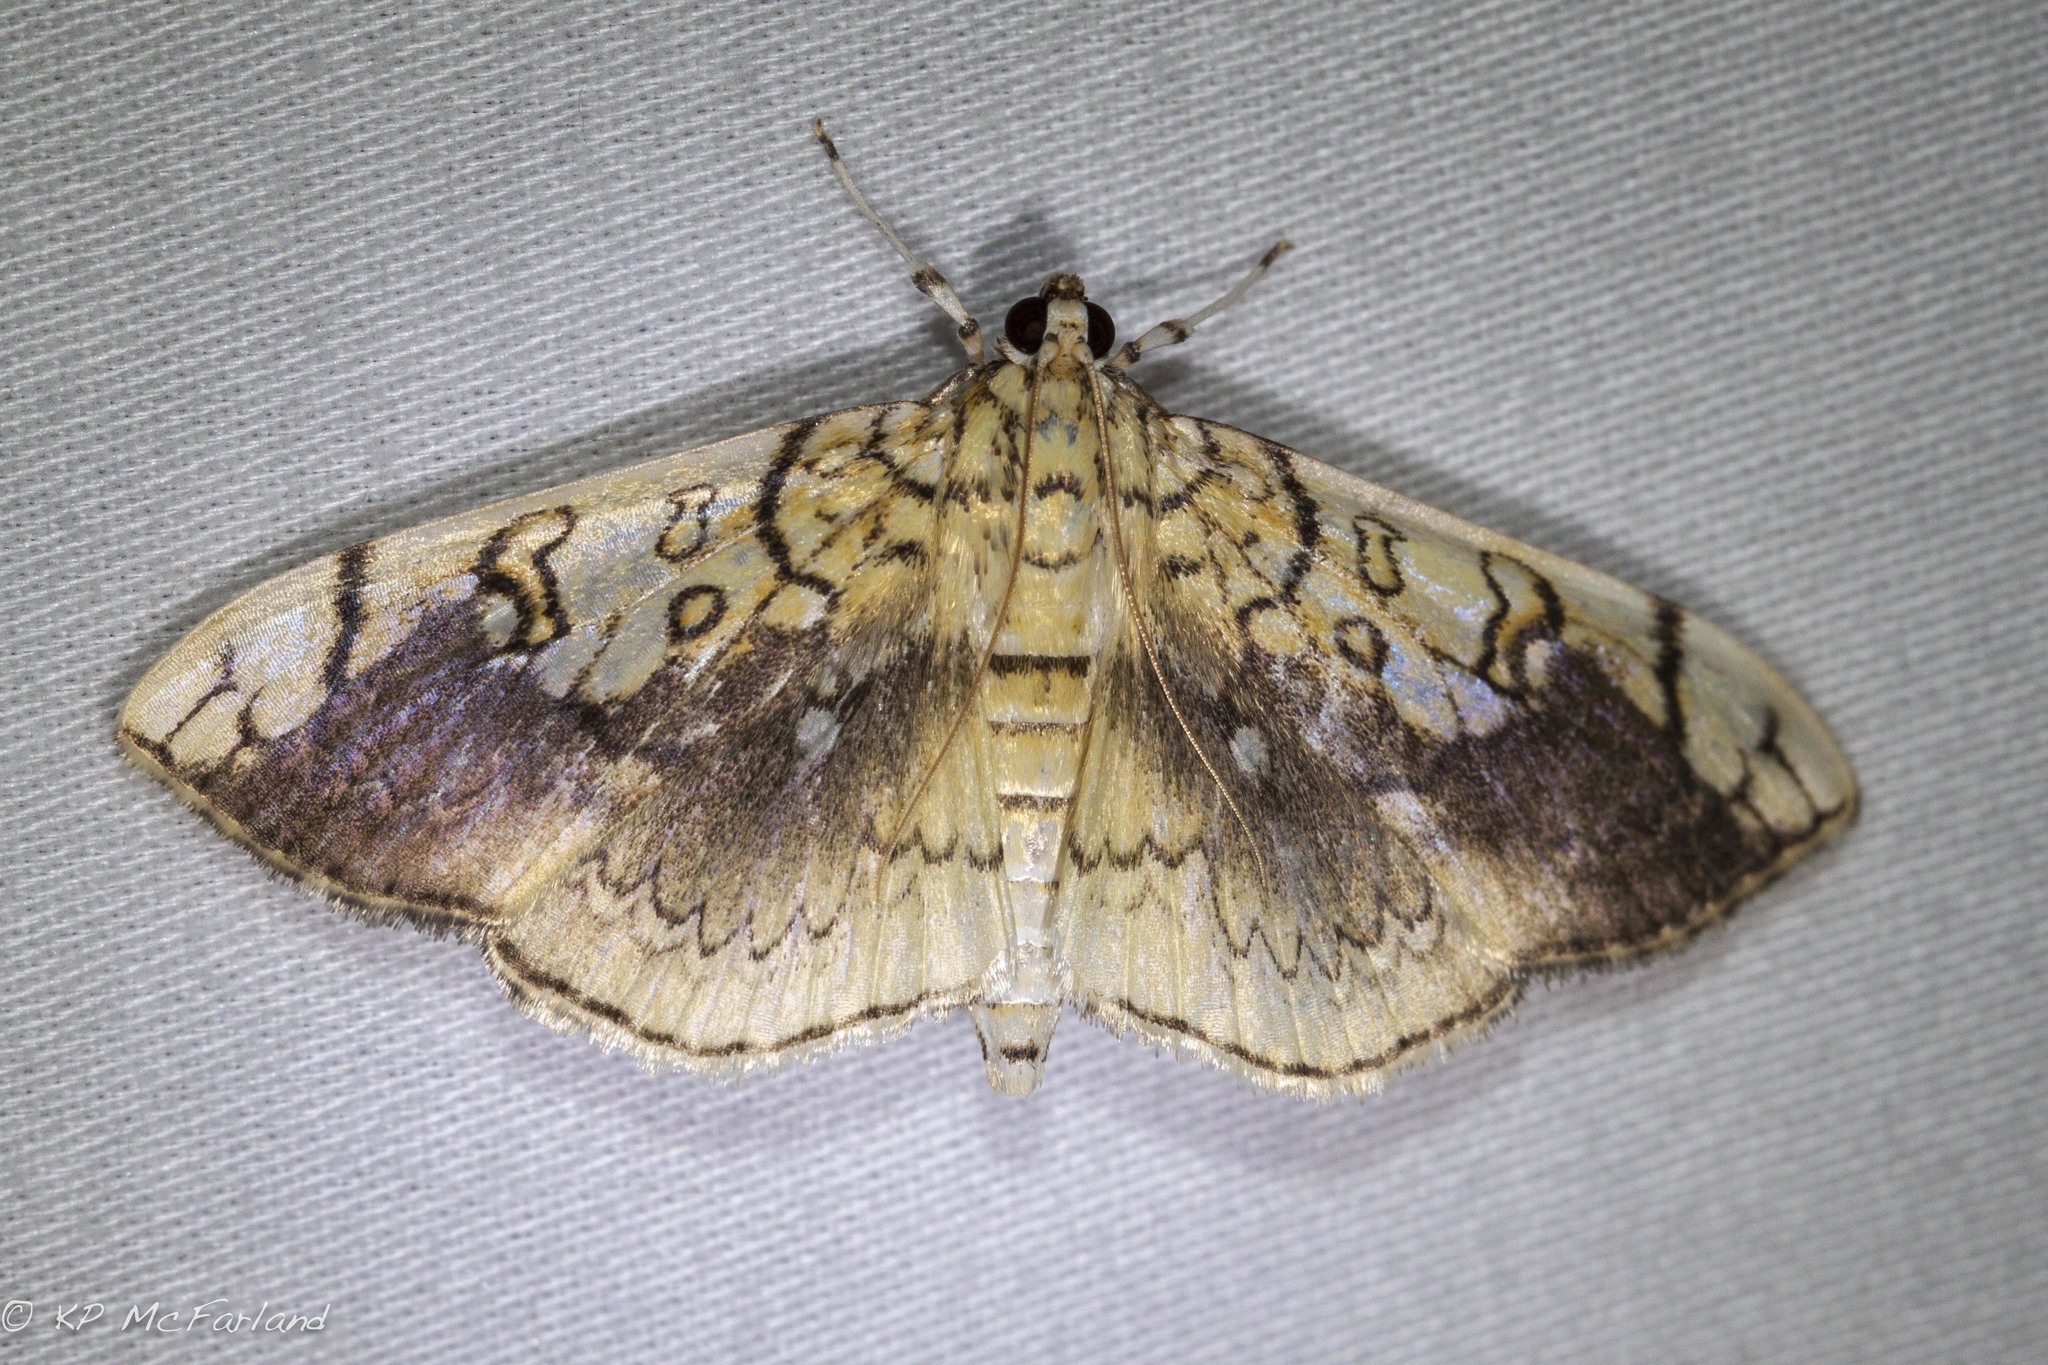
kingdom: Animalia
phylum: Arthropoda
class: Insecta
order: Lepidoptera
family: Crambidae
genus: Pantographa
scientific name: Pantographa limata
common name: Basswood leafroller moth
